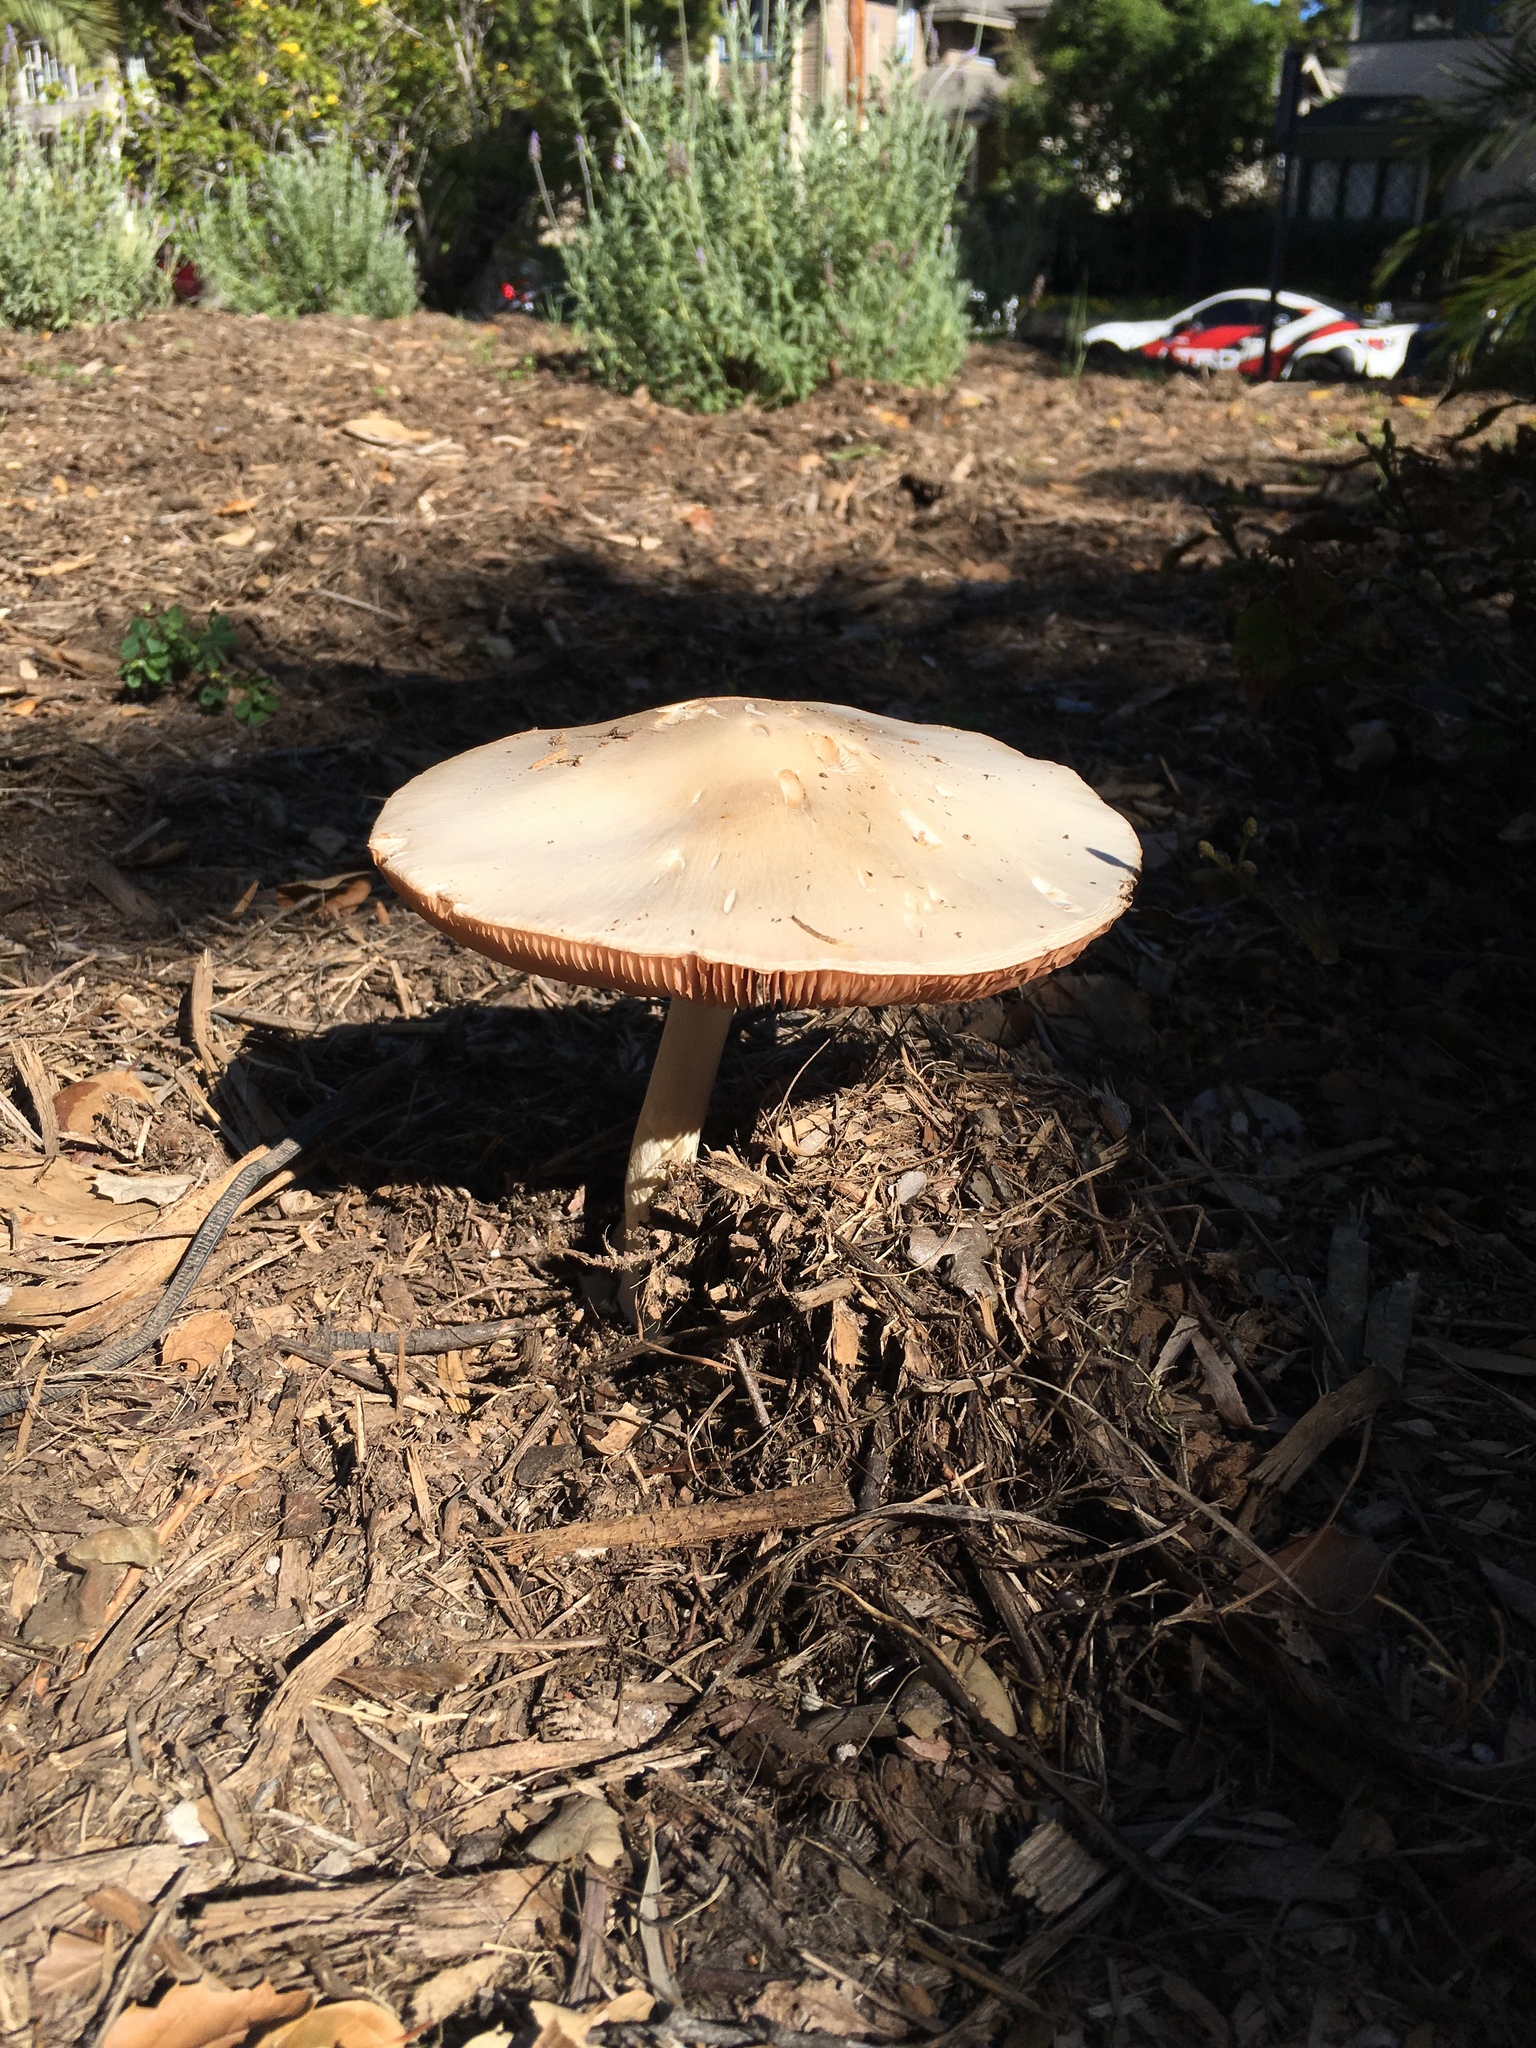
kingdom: Fungi
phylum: Basidiomycota
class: Agaricomycetes
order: Agaricales
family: Pluteaceae
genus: Volvopluteus
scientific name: Volvopluteus gloiocephalus
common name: Stubble rosegill
